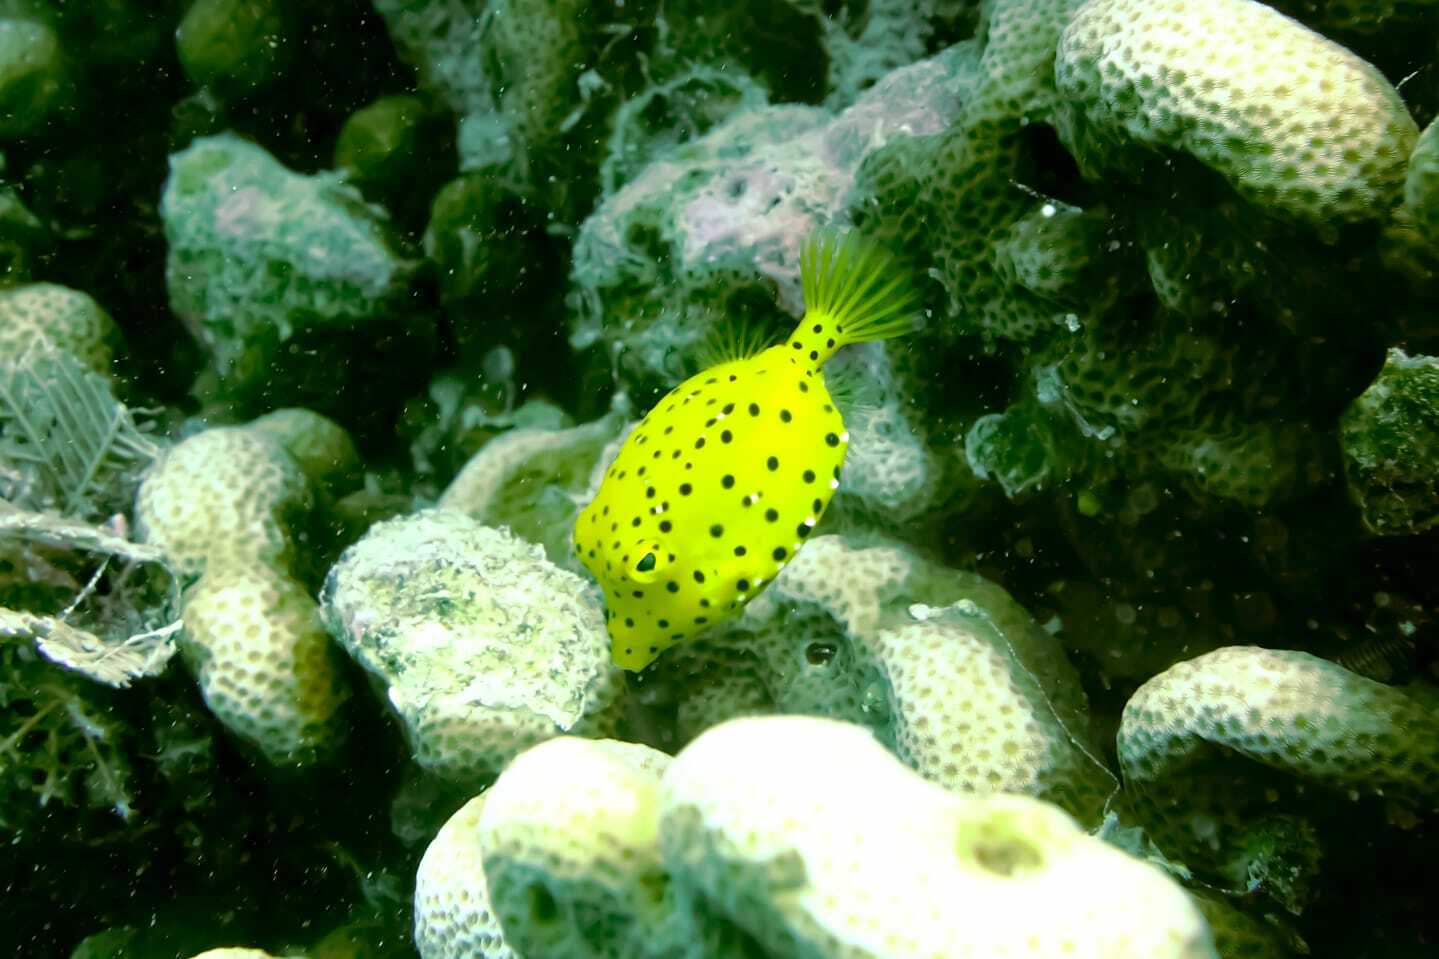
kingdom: Animalia
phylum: Chordata
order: Tetraodontiformes
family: Ostraciidae
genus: Ostracion
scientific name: Ostracion cubicus
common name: Cube trunkfish
